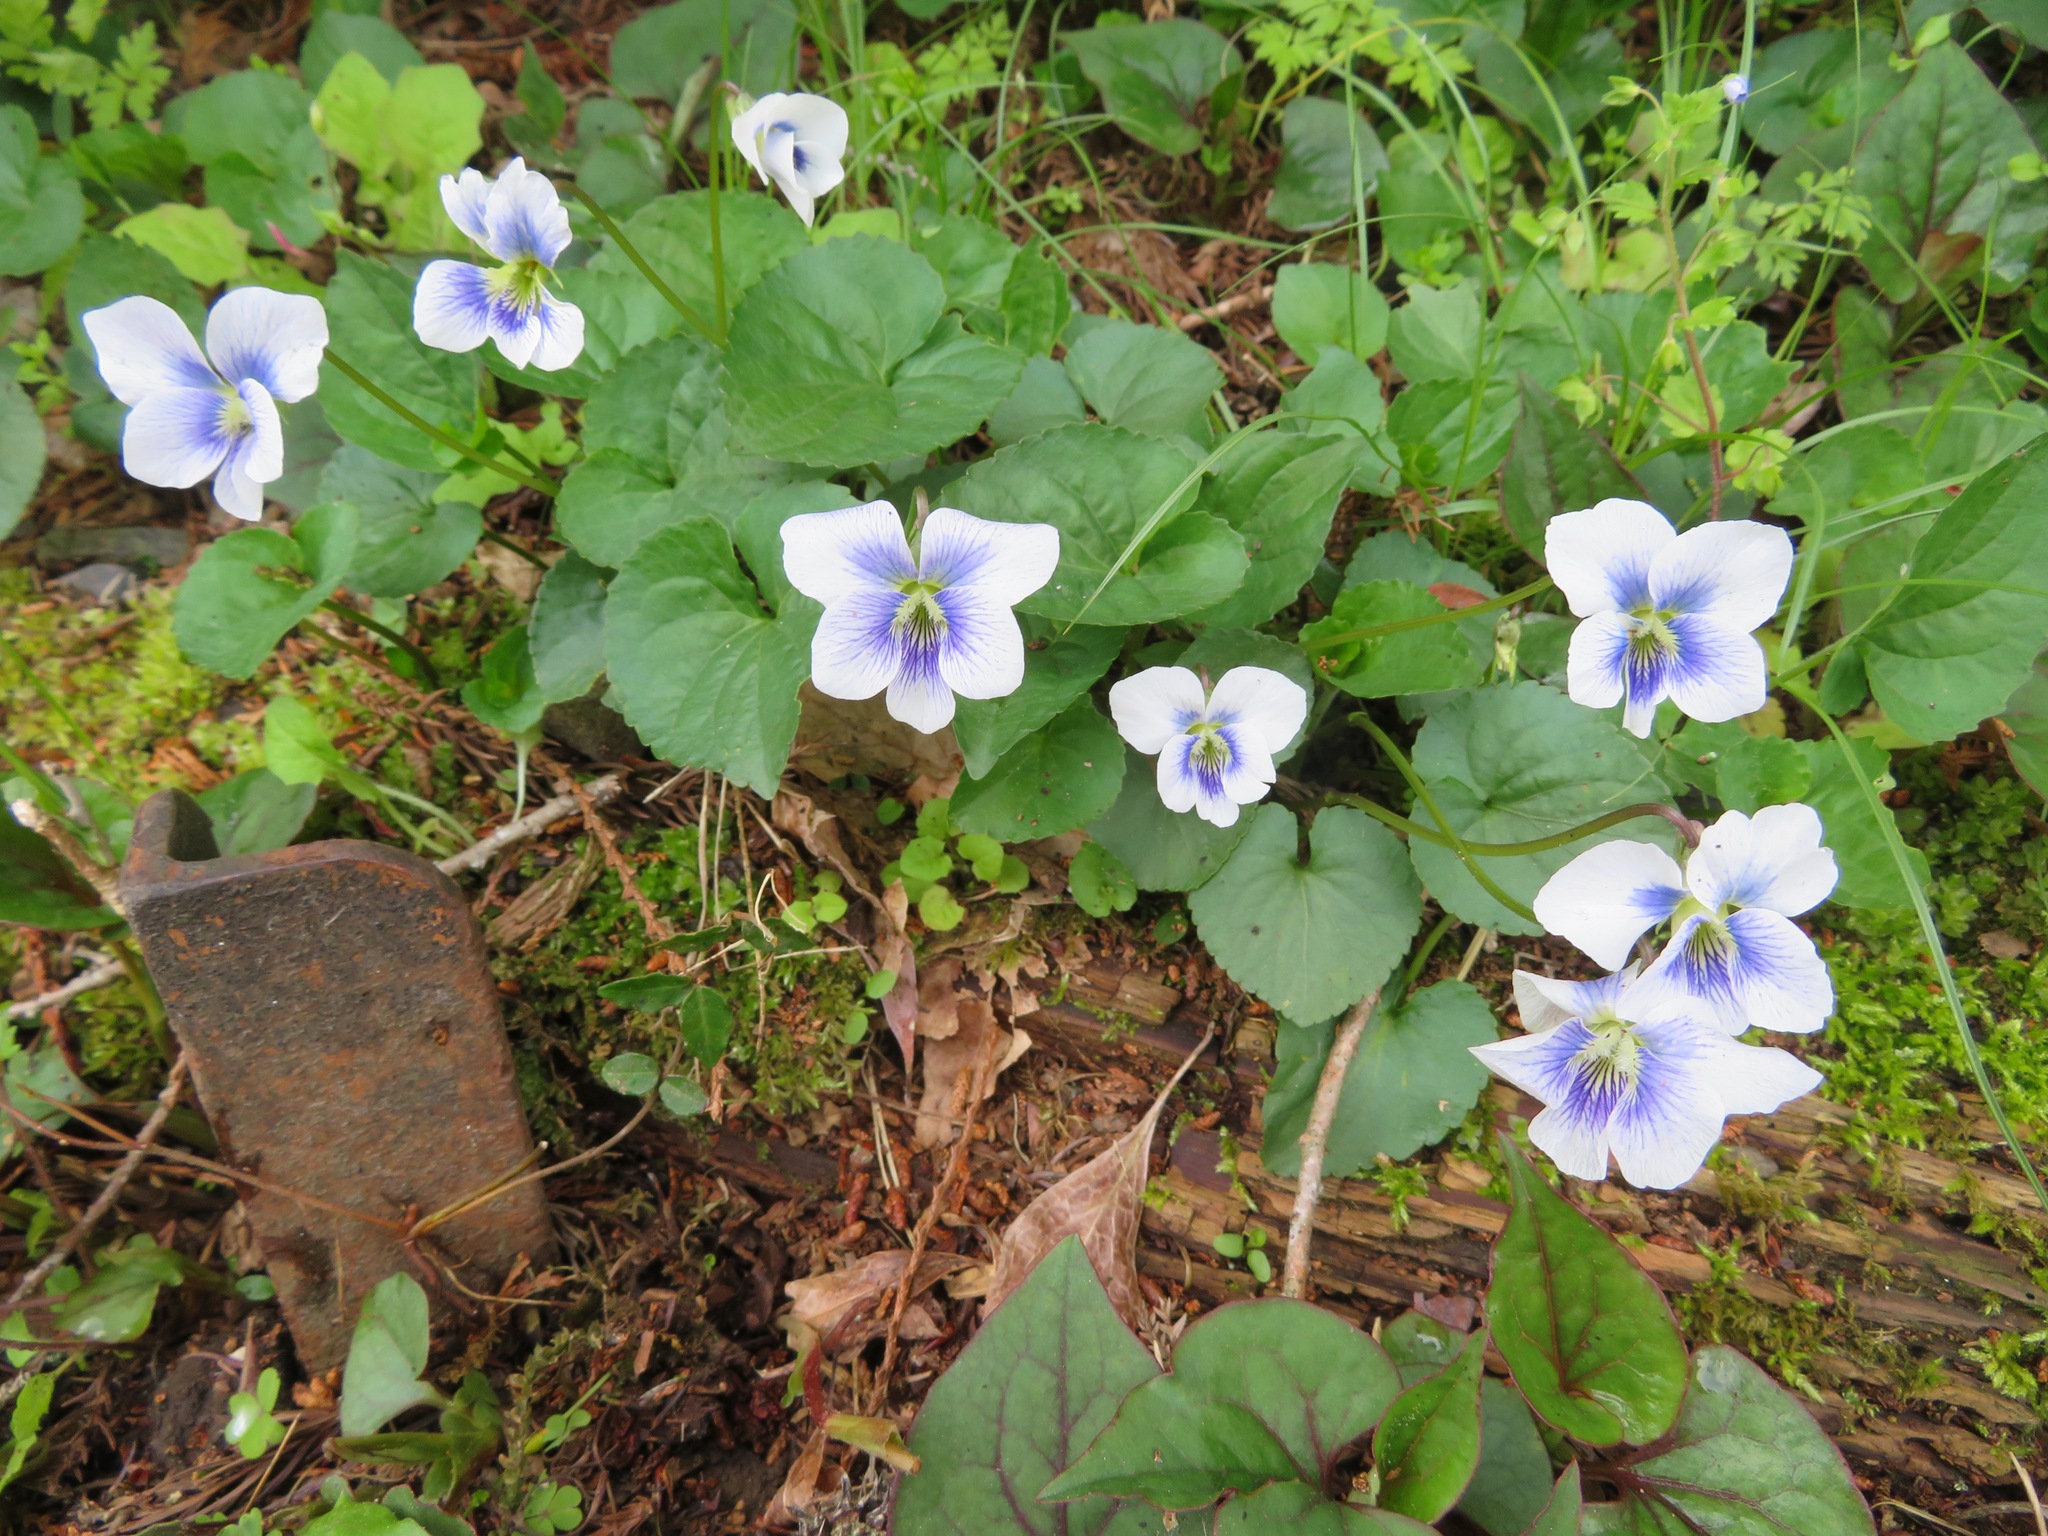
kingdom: Plantae
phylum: Tracheophyta
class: Magnoliopsida
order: Malpighiales
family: Violaceae
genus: Viola
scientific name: Viola sororia
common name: Dooryard violet
